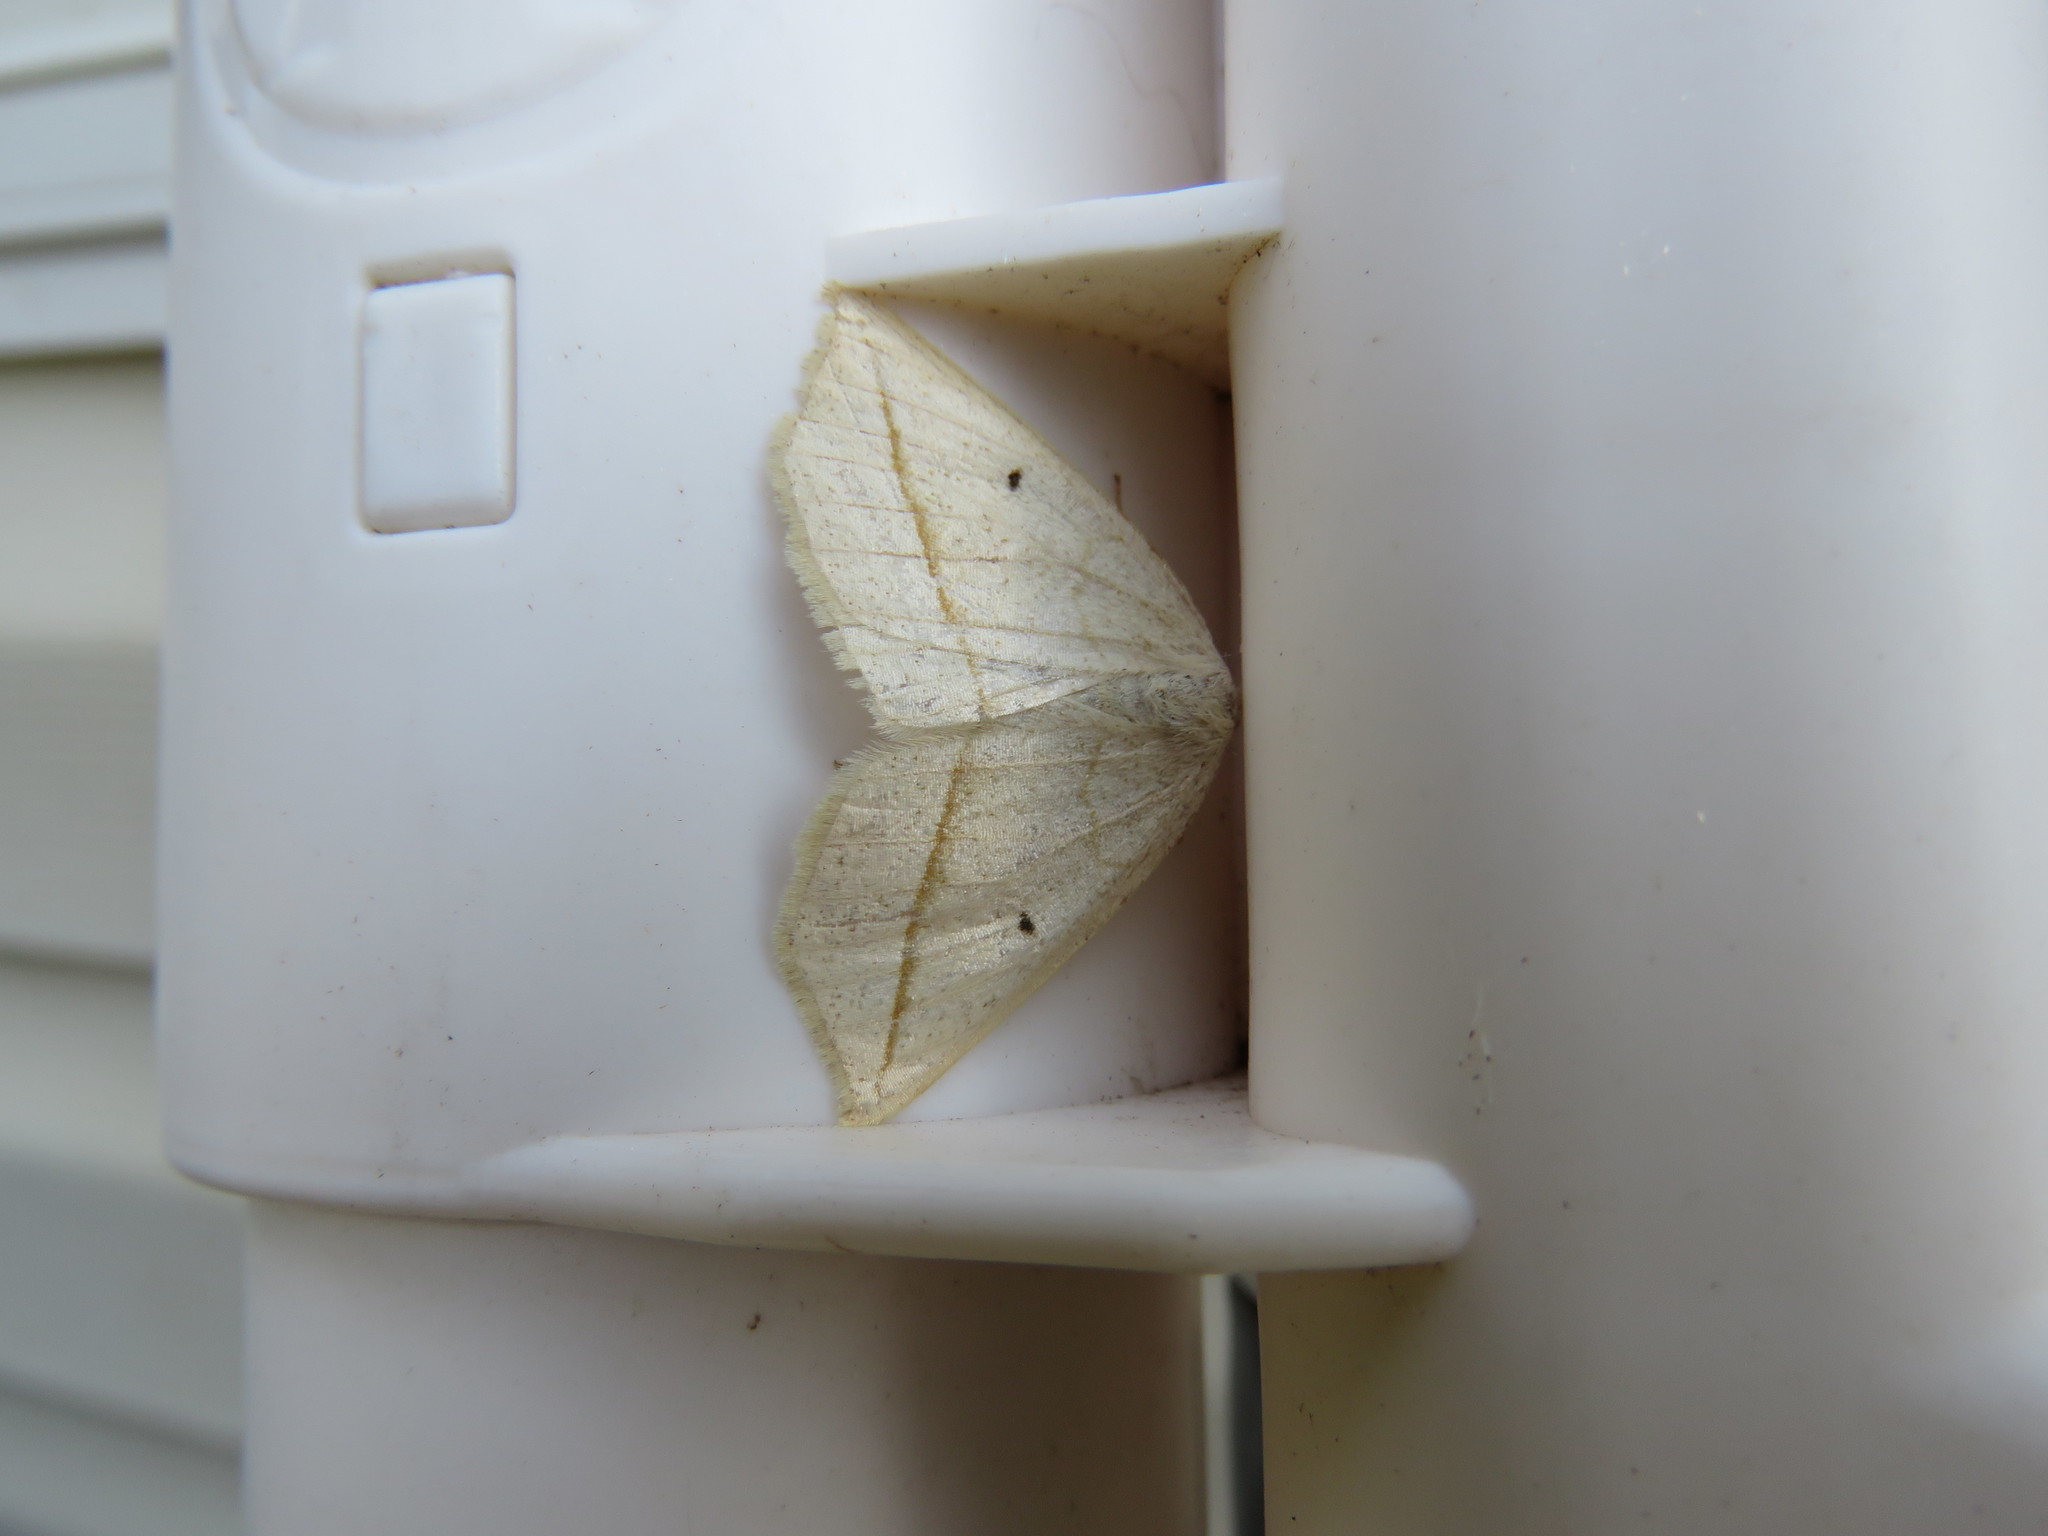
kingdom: Animalia
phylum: Arthropoda
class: Insecta
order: Lepidoptera
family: Geometridae
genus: Eusarca
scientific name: Eusarca confusaria
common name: Confused eusarca
